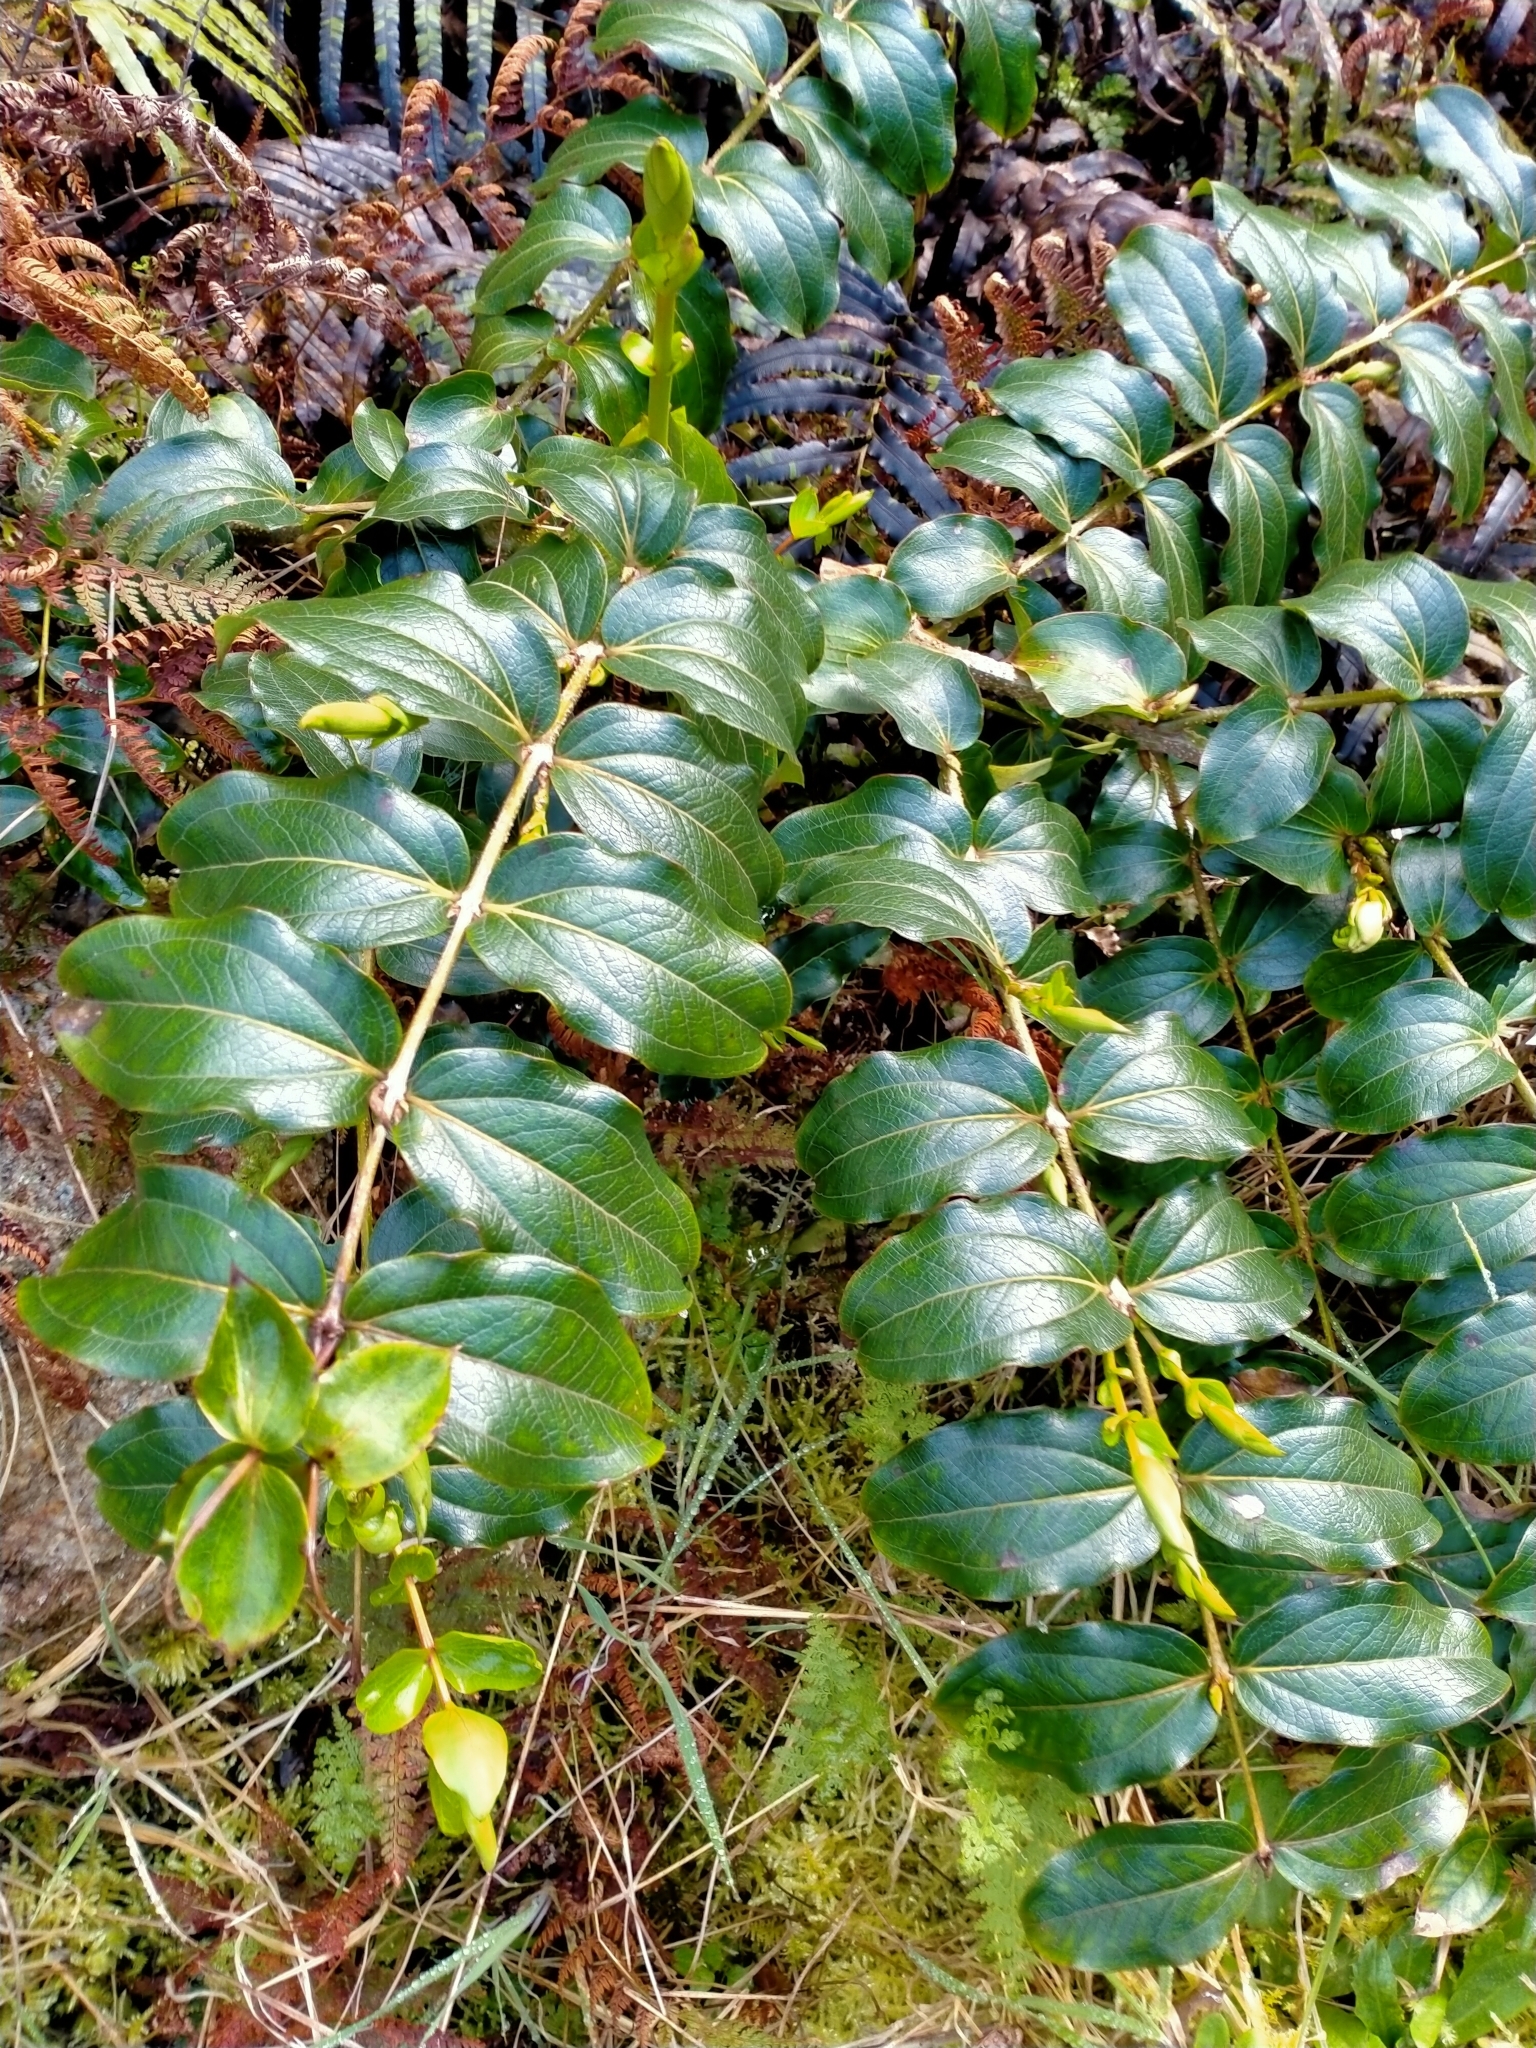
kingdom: Plantae
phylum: Tracheophyta
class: Magnoliopsida
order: Cucurbitales
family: Coriariaceae
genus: Coriaria
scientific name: Coriaria arborea
